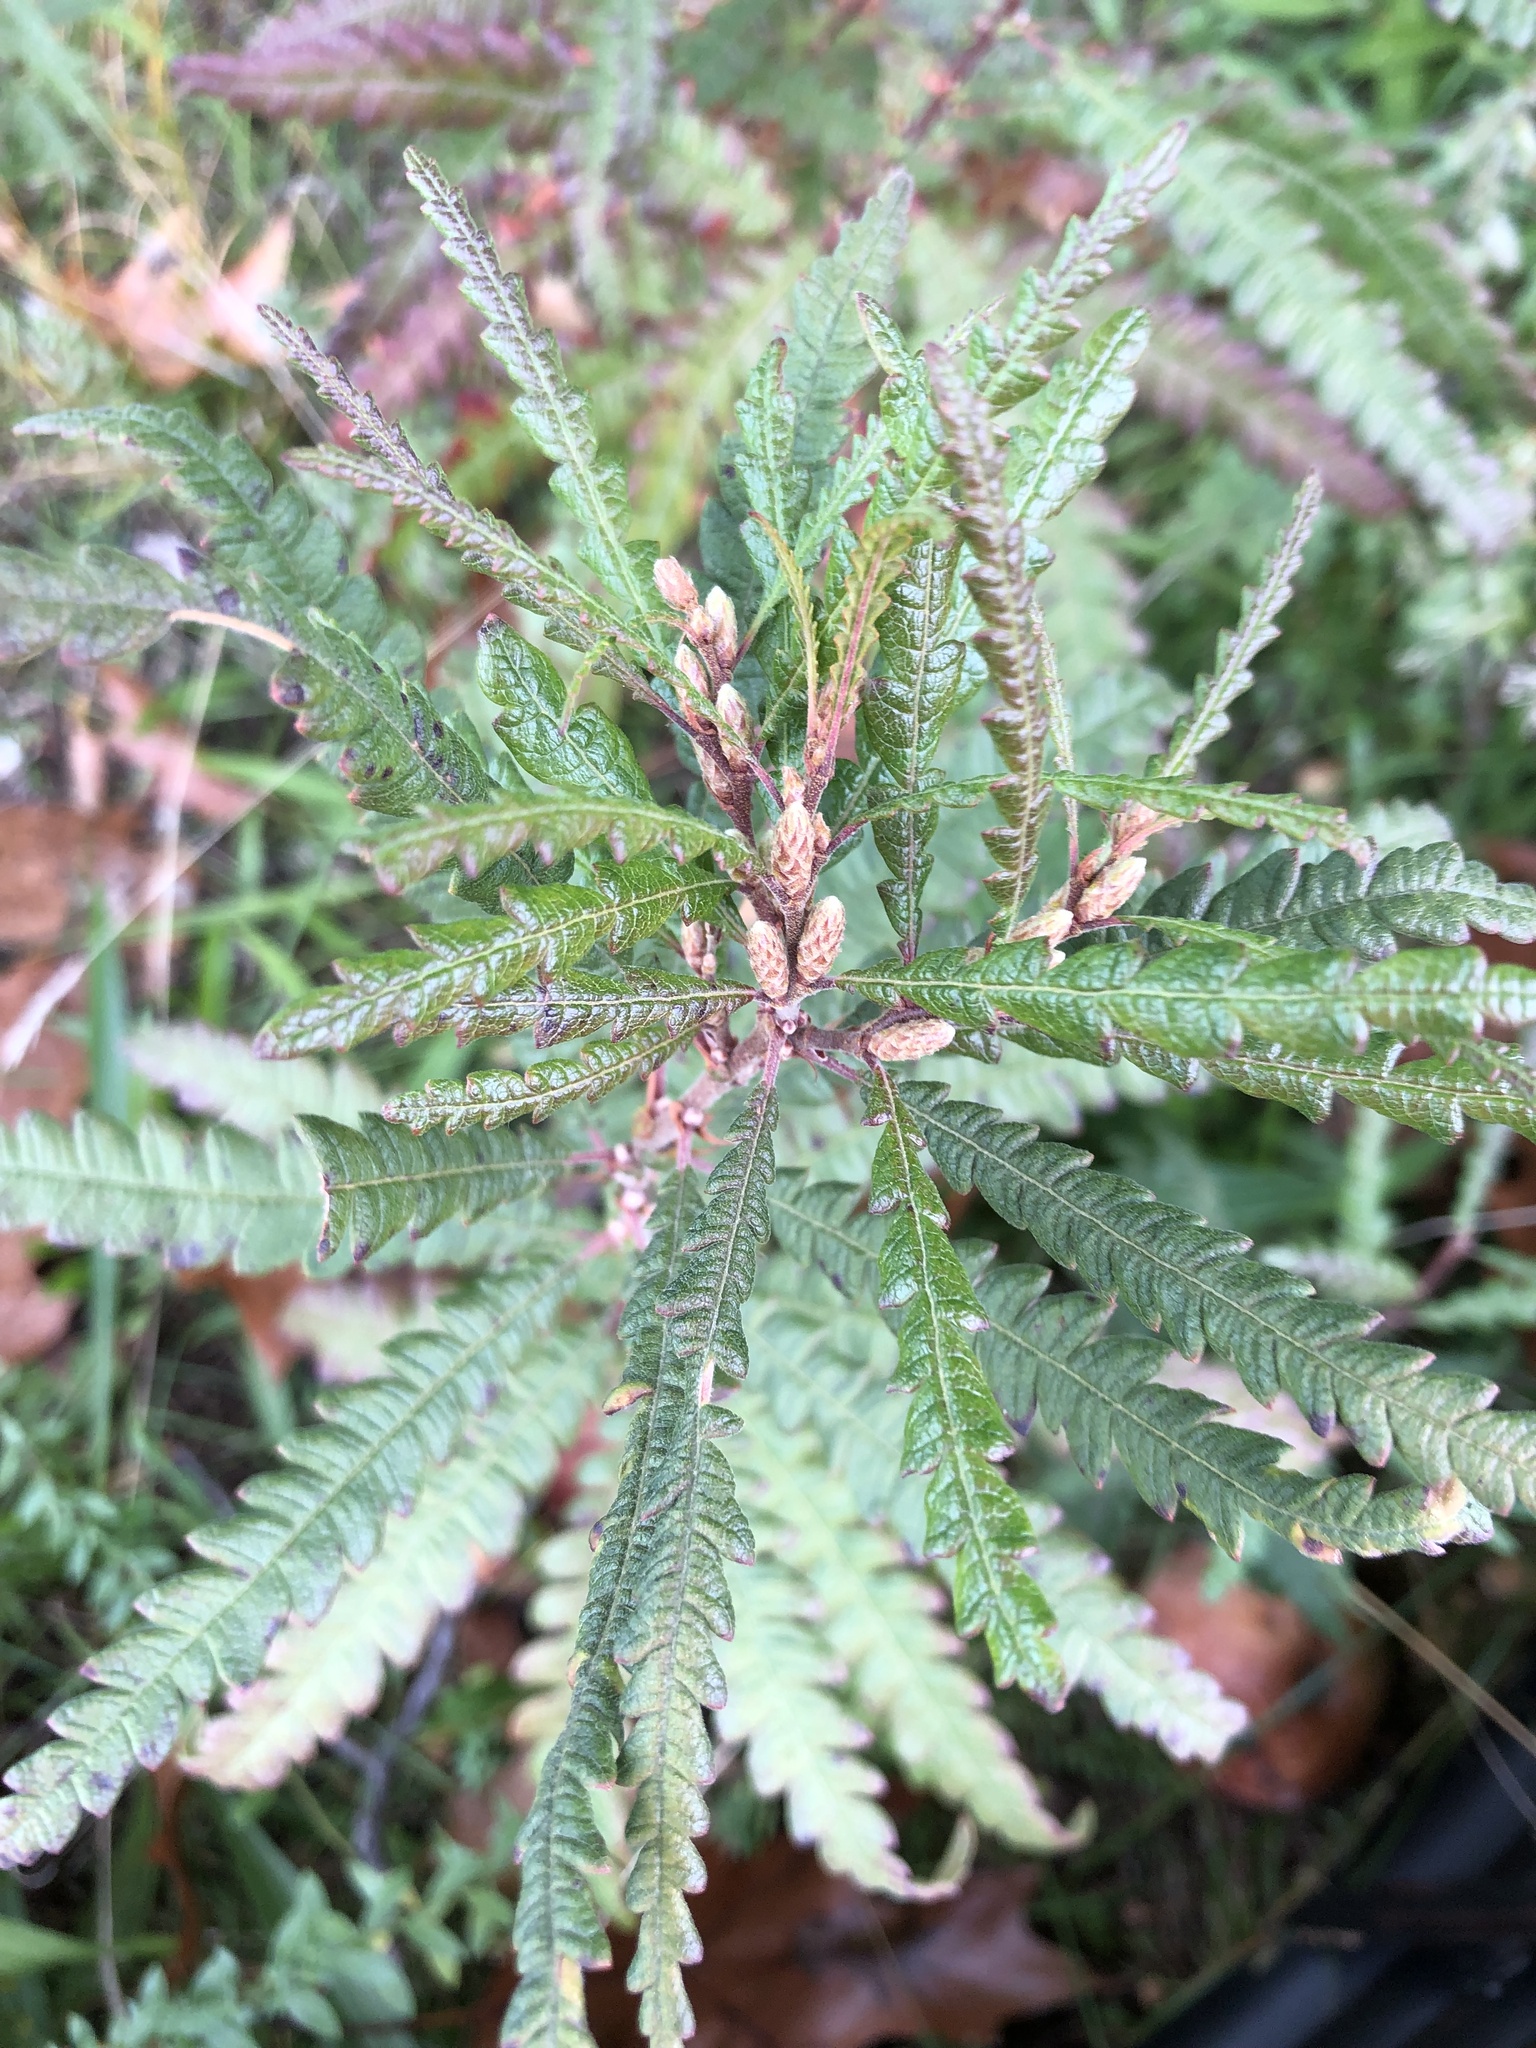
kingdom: Plantae
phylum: Tracheophyta
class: Magnoliopsida
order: Fagales
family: Myricaceae
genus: Comptonia
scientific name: Comptonia peregrina
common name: Sweet-fern
